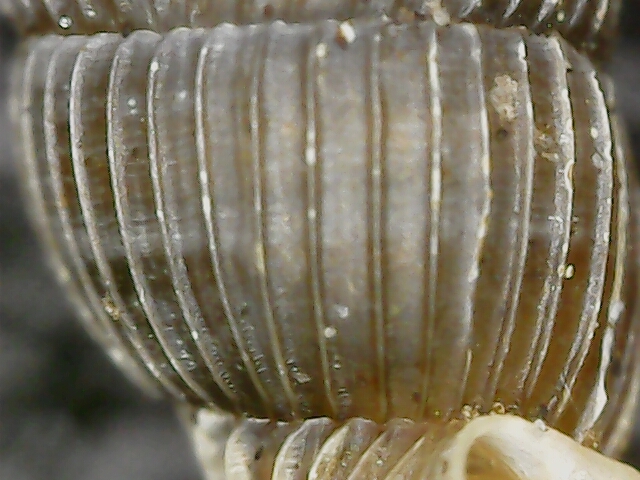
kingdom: Animalia
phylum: Mollusca
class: Gastropoda
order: Stylommatophora
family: Clausiliidae
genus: Ruthenica
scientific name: Ruthenica filograna
